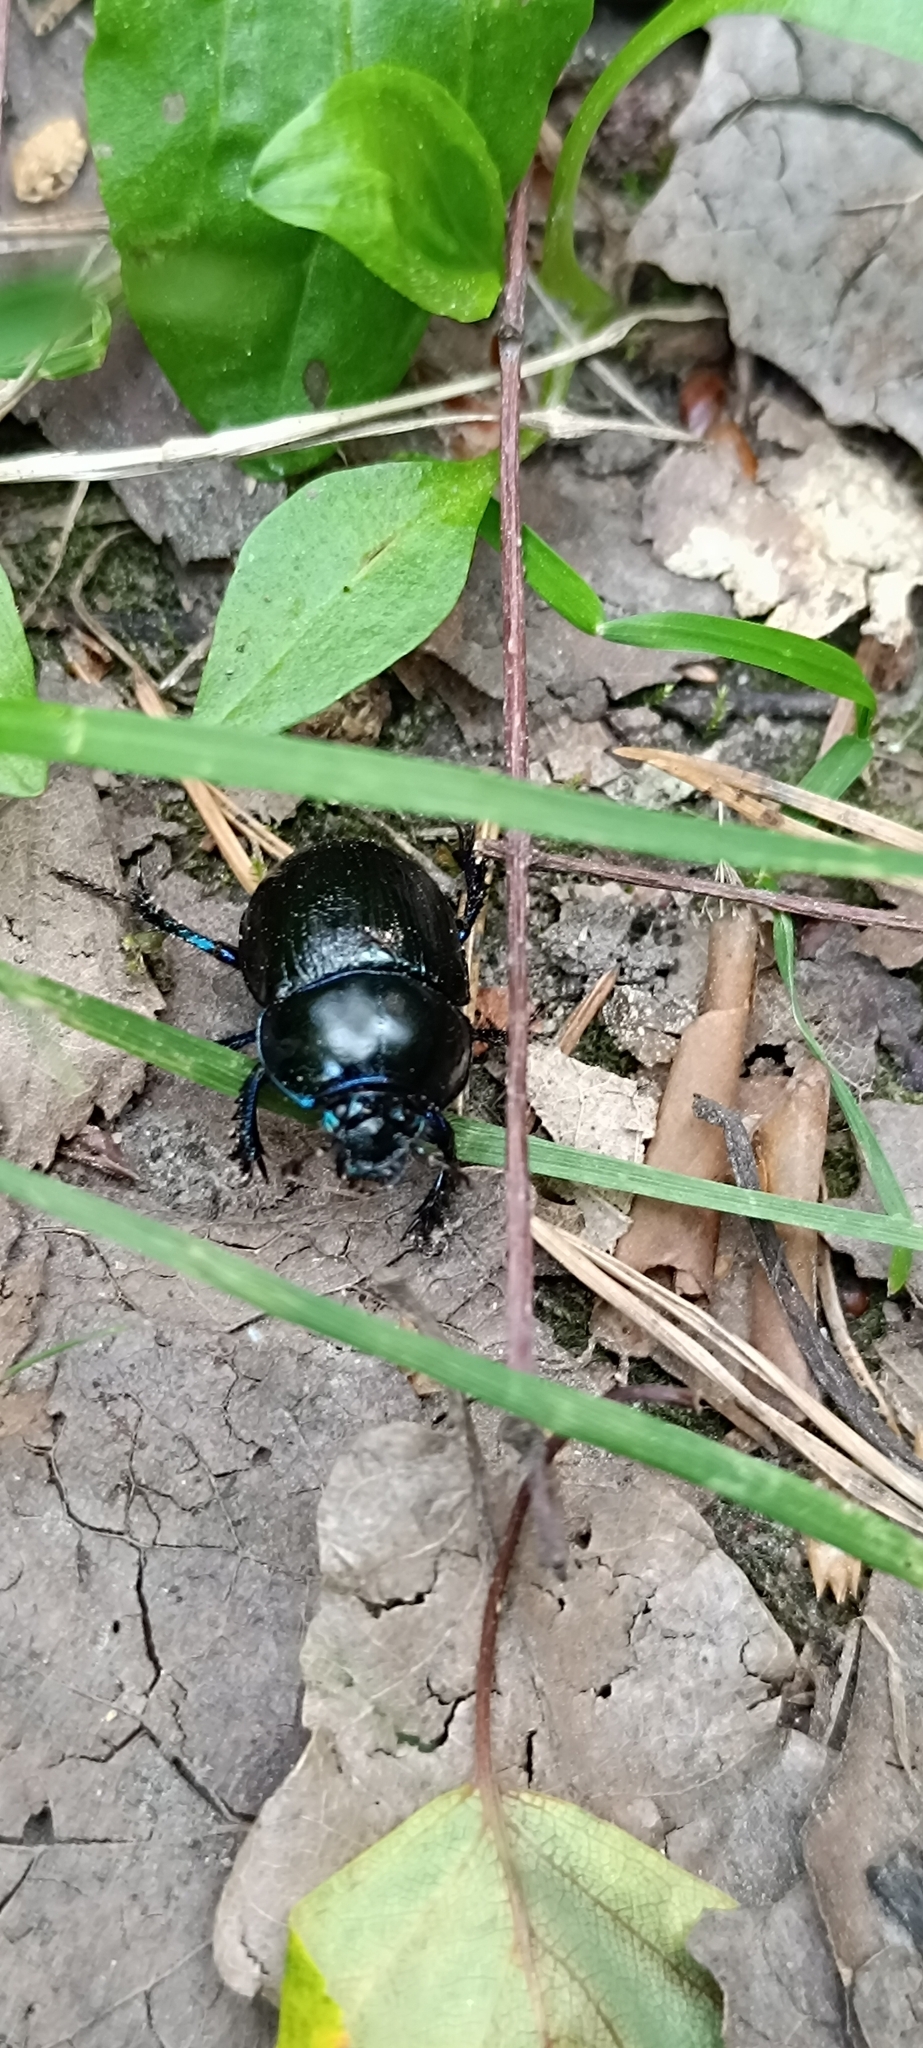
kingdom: Animalia
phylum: Arthropoda
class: Insecta
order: Coleoptera
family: Geotrupidae
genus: Anoplotrupes
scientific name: Anoplotrupes stercorosus
